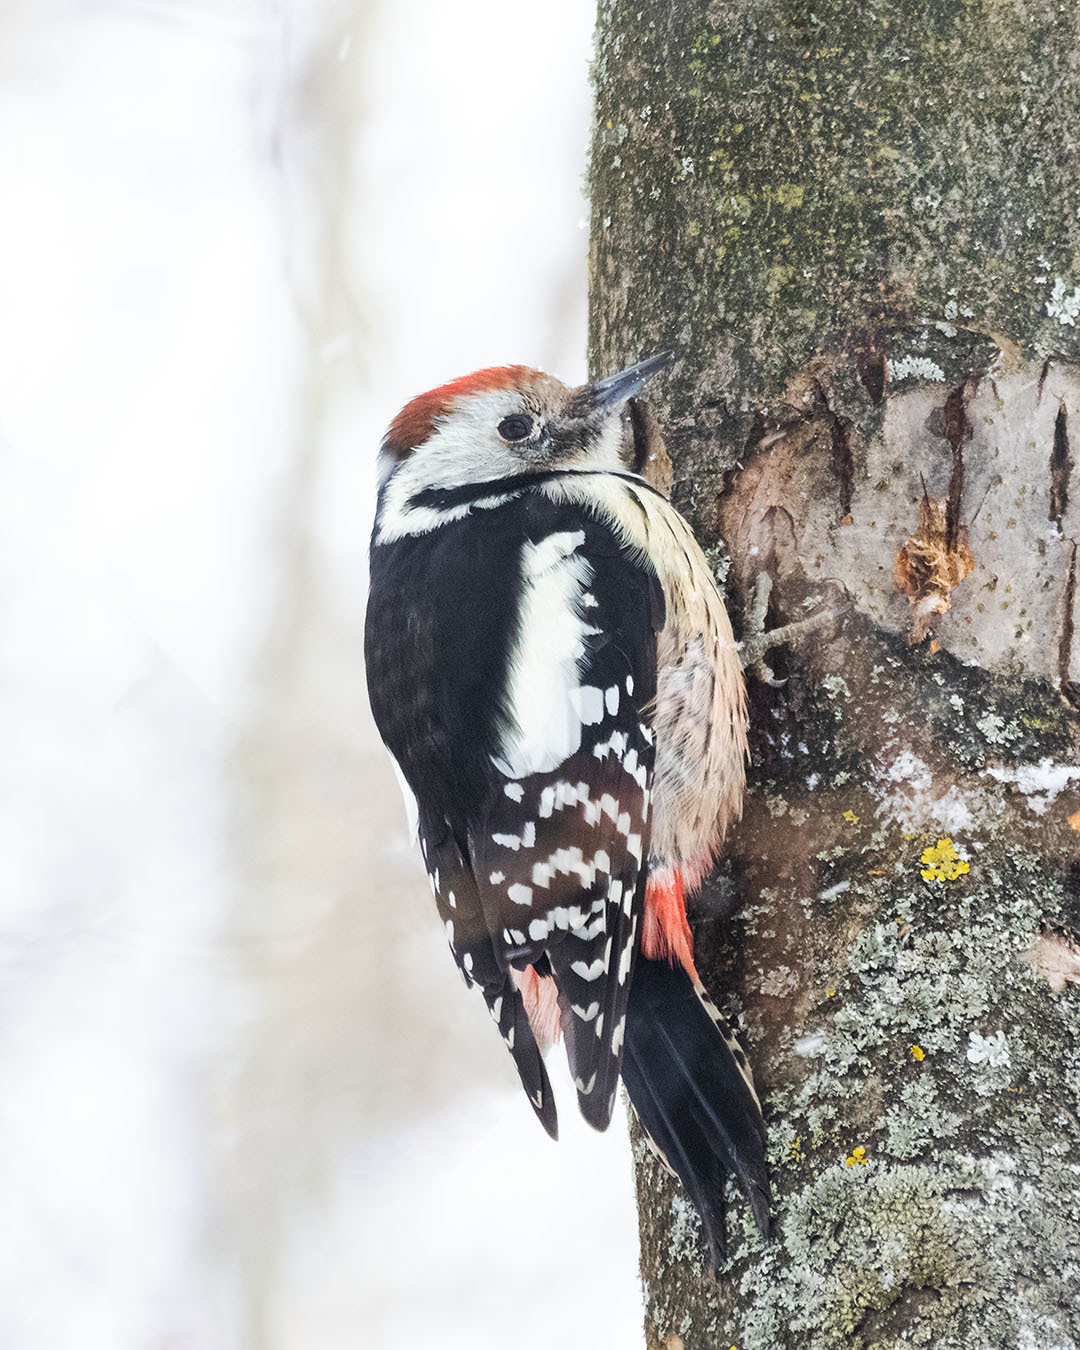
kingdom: Animalia
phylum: Chordata
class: Aves
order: Piciformes
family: Picidae
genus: Dendrocoptes
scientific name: Dendrocoptes medius
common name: Middle spotted woodpecker
